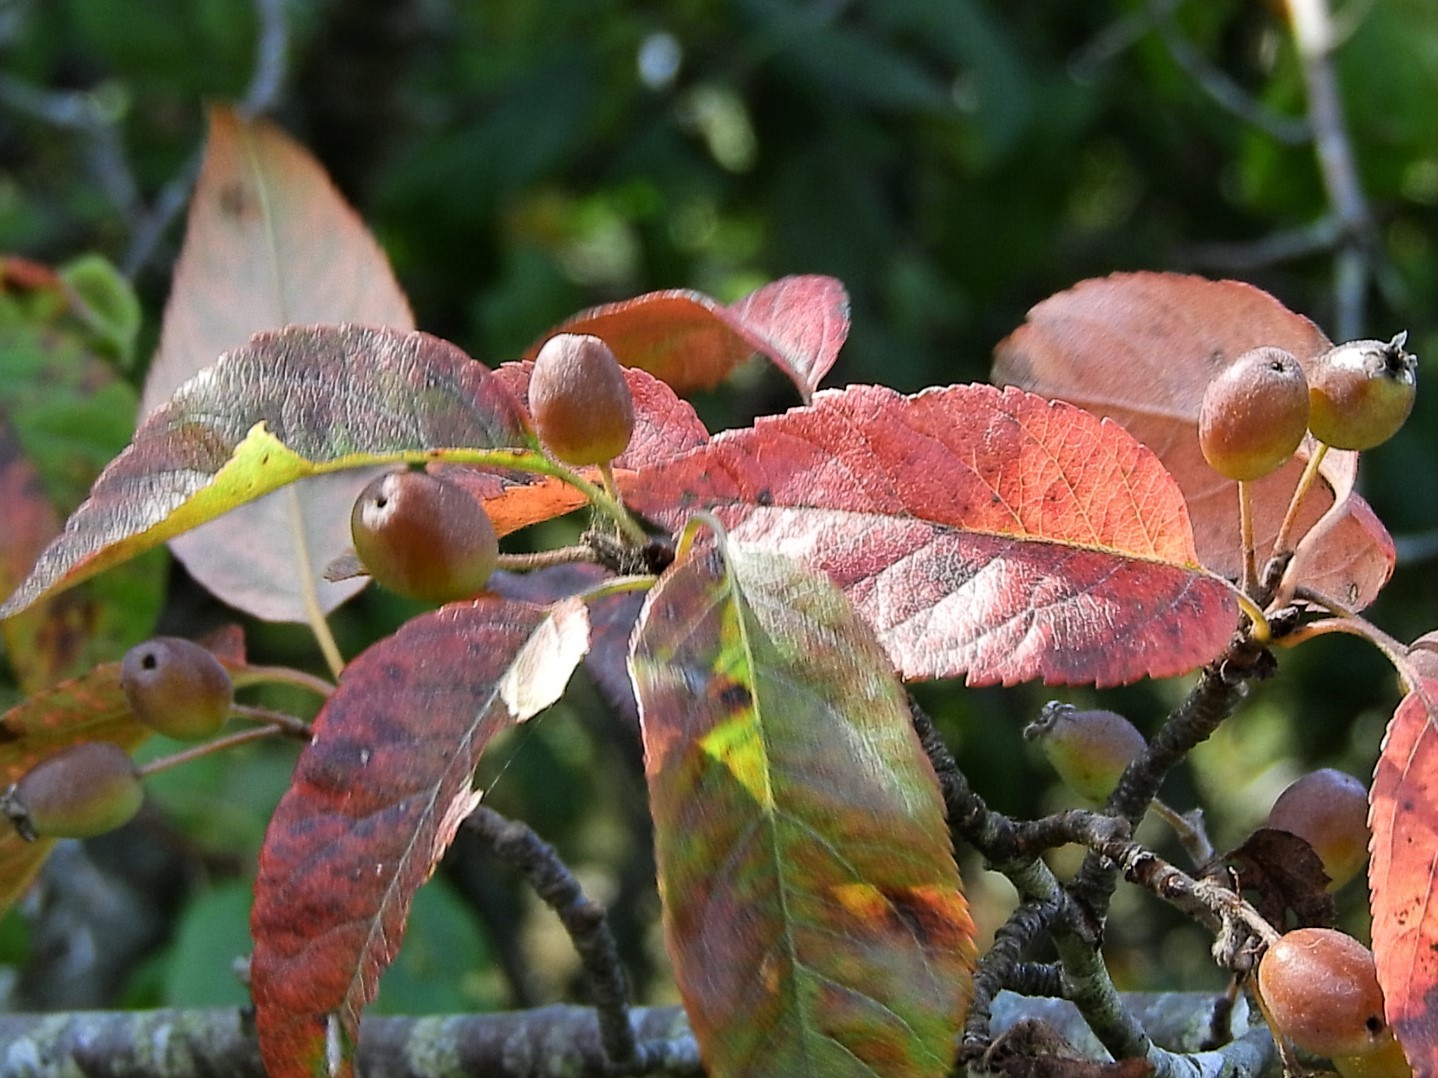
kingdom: Plantae
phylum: Tracheophyta
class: Magnoliopsida
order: Rosales
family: Rosaceae
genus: Malus
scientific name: Malus fusca
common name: Oregon crab apple
